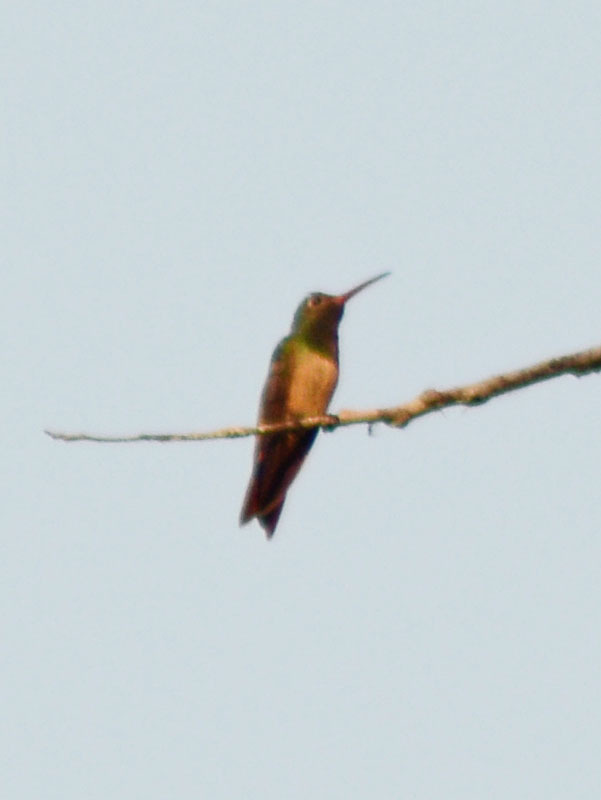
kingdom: Animalia
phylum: Chordata
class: Aves
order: Apodiformes
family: Trochilidae
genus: Amazilia
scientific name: Amazilia yucatanensis
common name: Buff-bellied hummingbird
